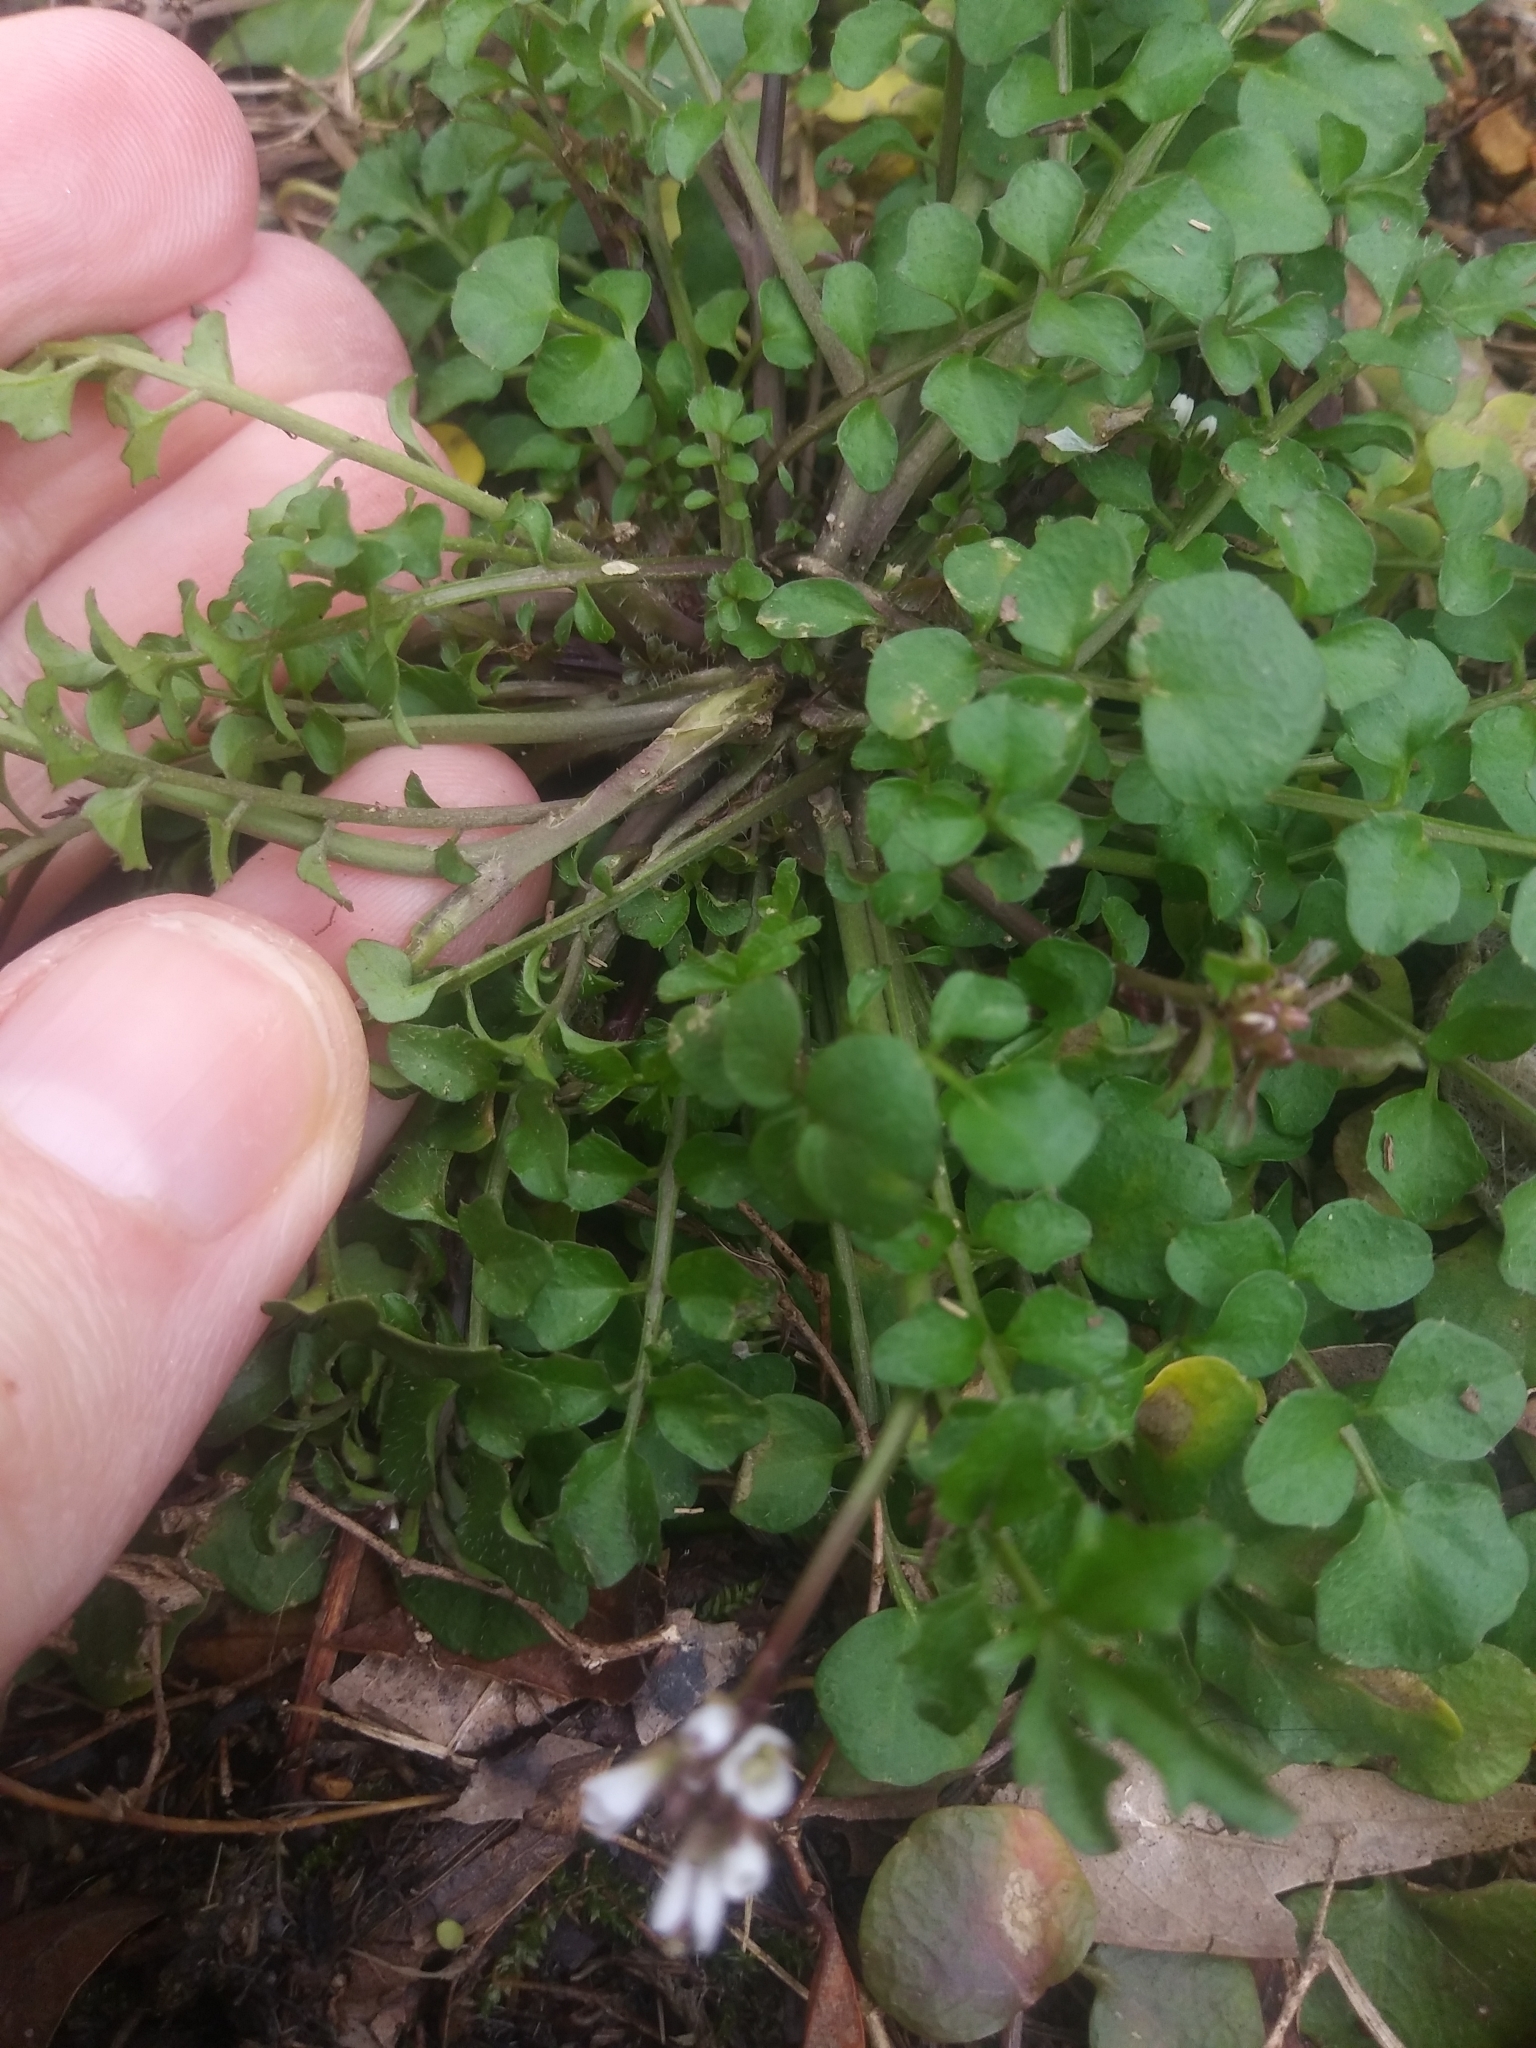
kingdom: Plantae
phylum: Tracheophyta
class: Magnoliopsida
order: Brassicales
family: Brassicaceae
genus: Cardamine
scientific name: Cardamine hirsuta
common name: Hairy bittercress
